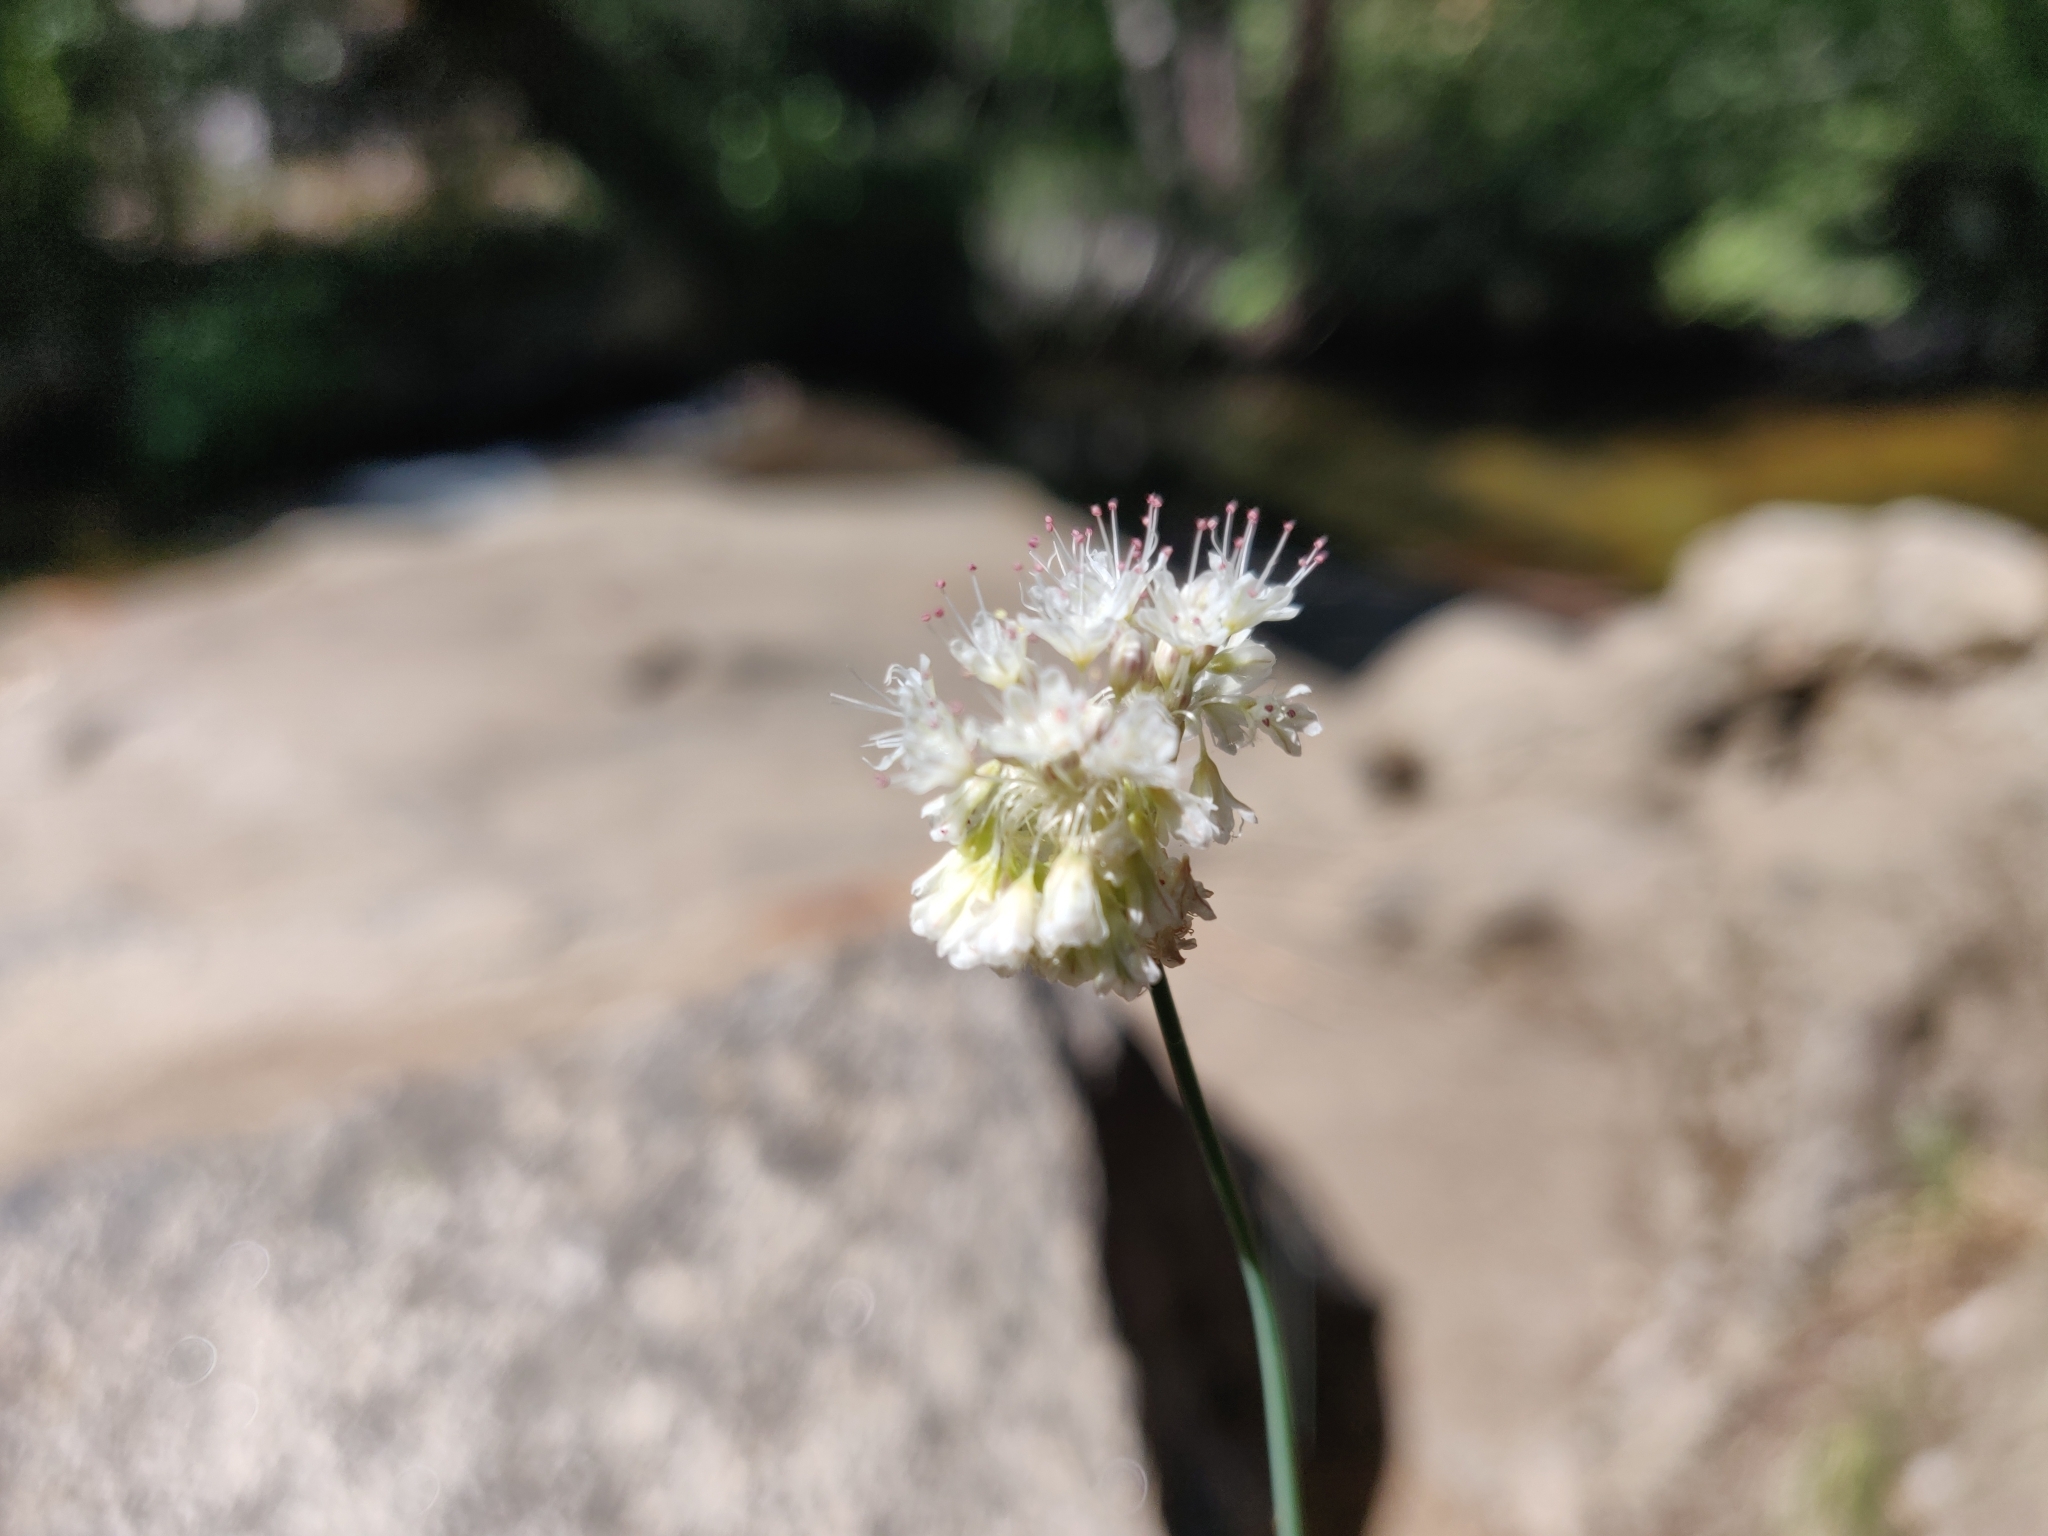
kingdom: Plantae
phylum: Tracheophyta
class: Magnoliopsida
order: Caryophyllales
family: Polygonaceae
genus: Eriogonum
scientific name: Eriogonum nudum
